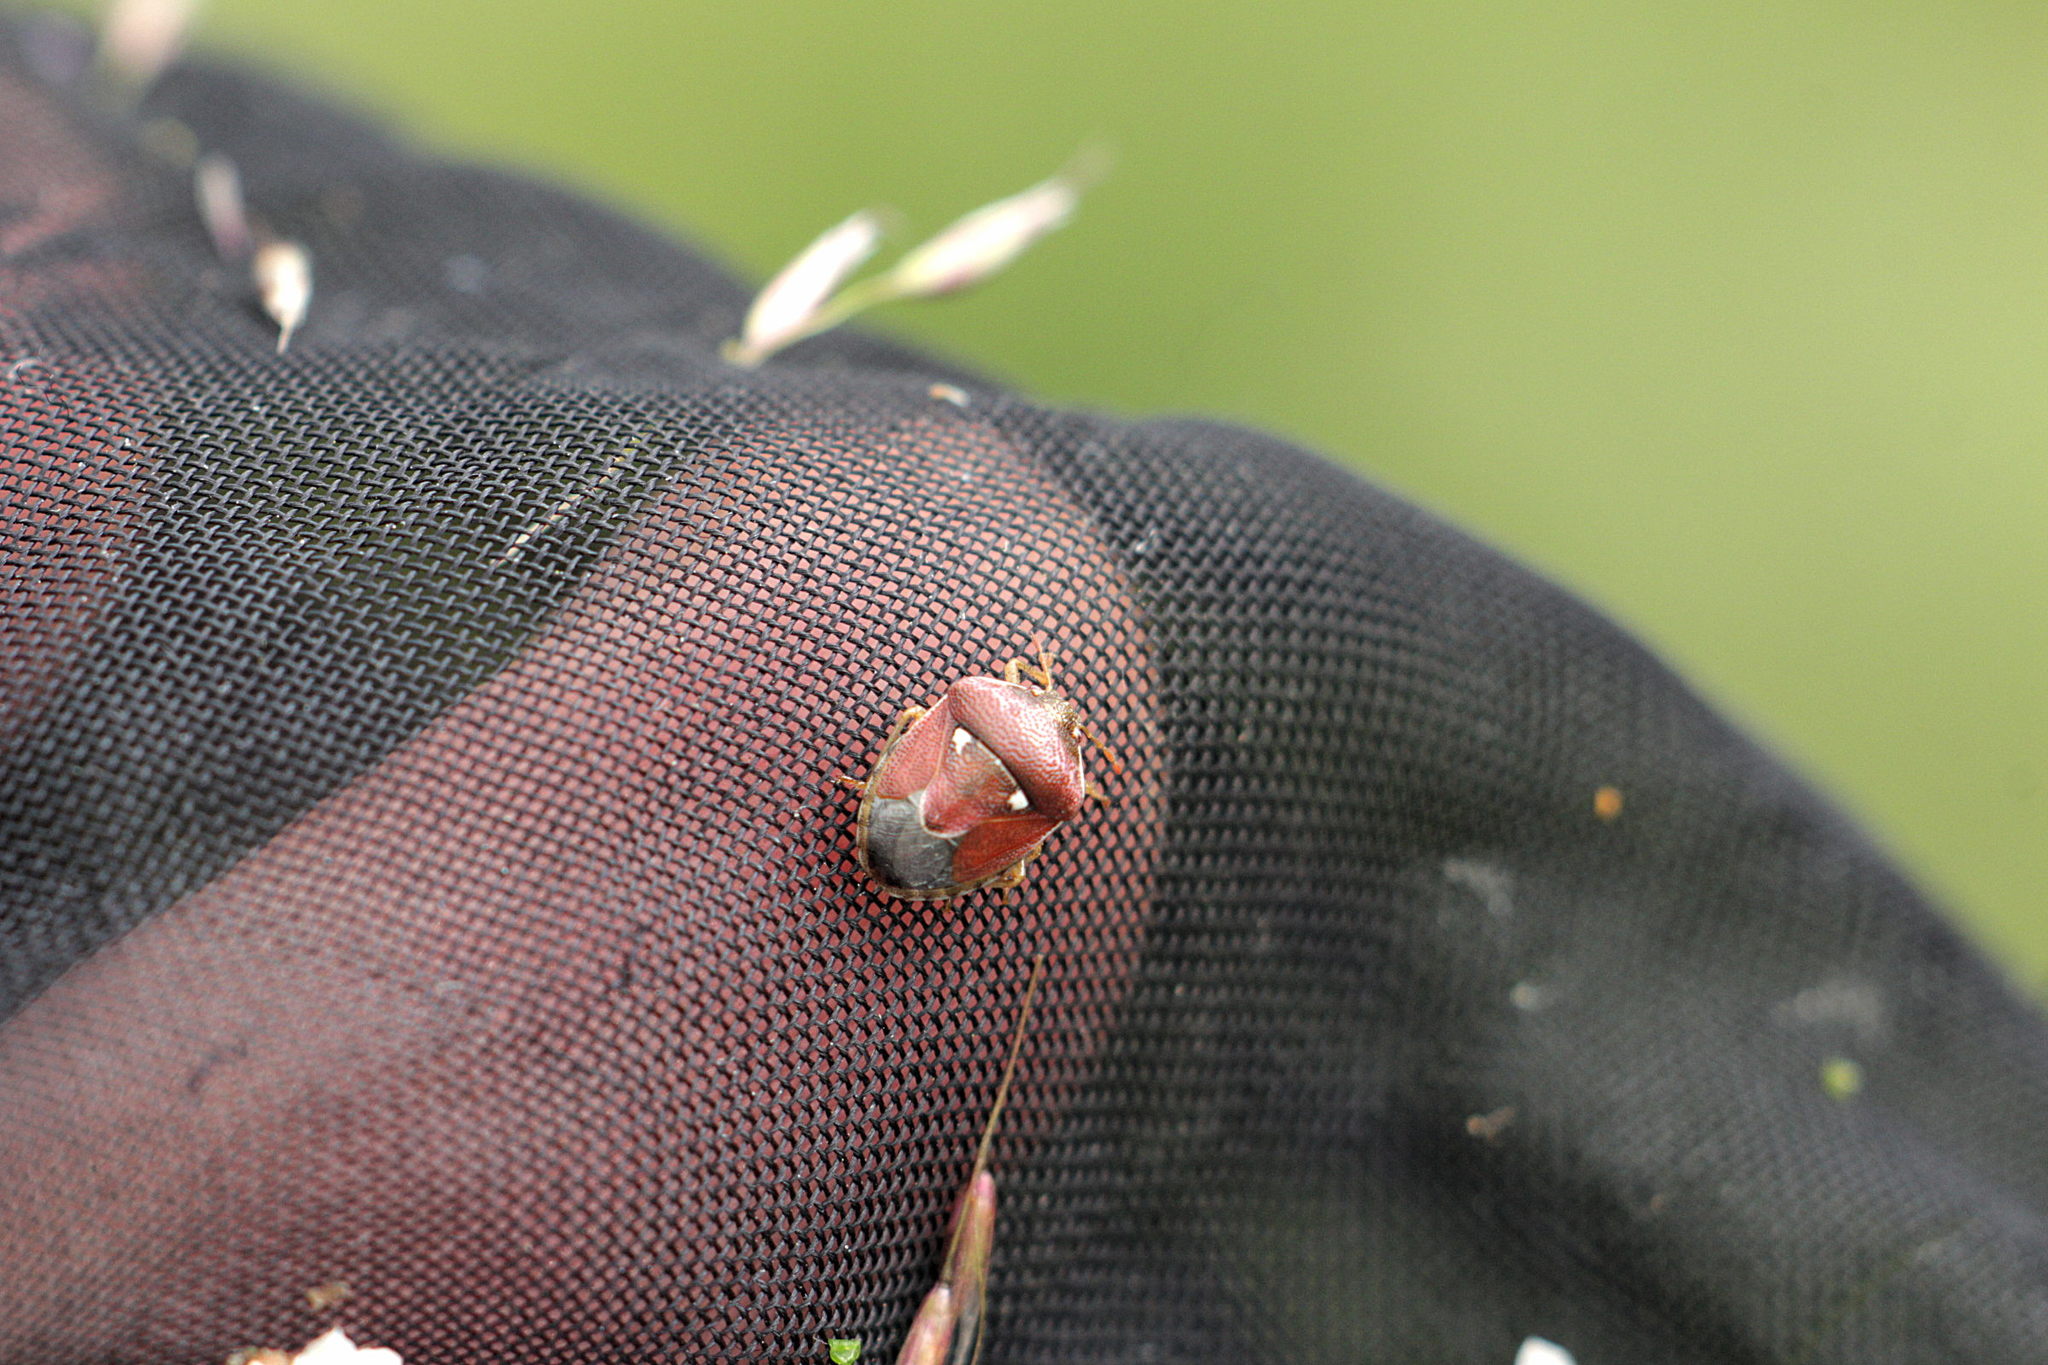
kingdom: Animalia
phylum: Arthropoda
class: Insecta
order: Hemiptera
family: Pentatomidae
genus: Stagonomus
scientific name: Stagonomus bipunctatus
